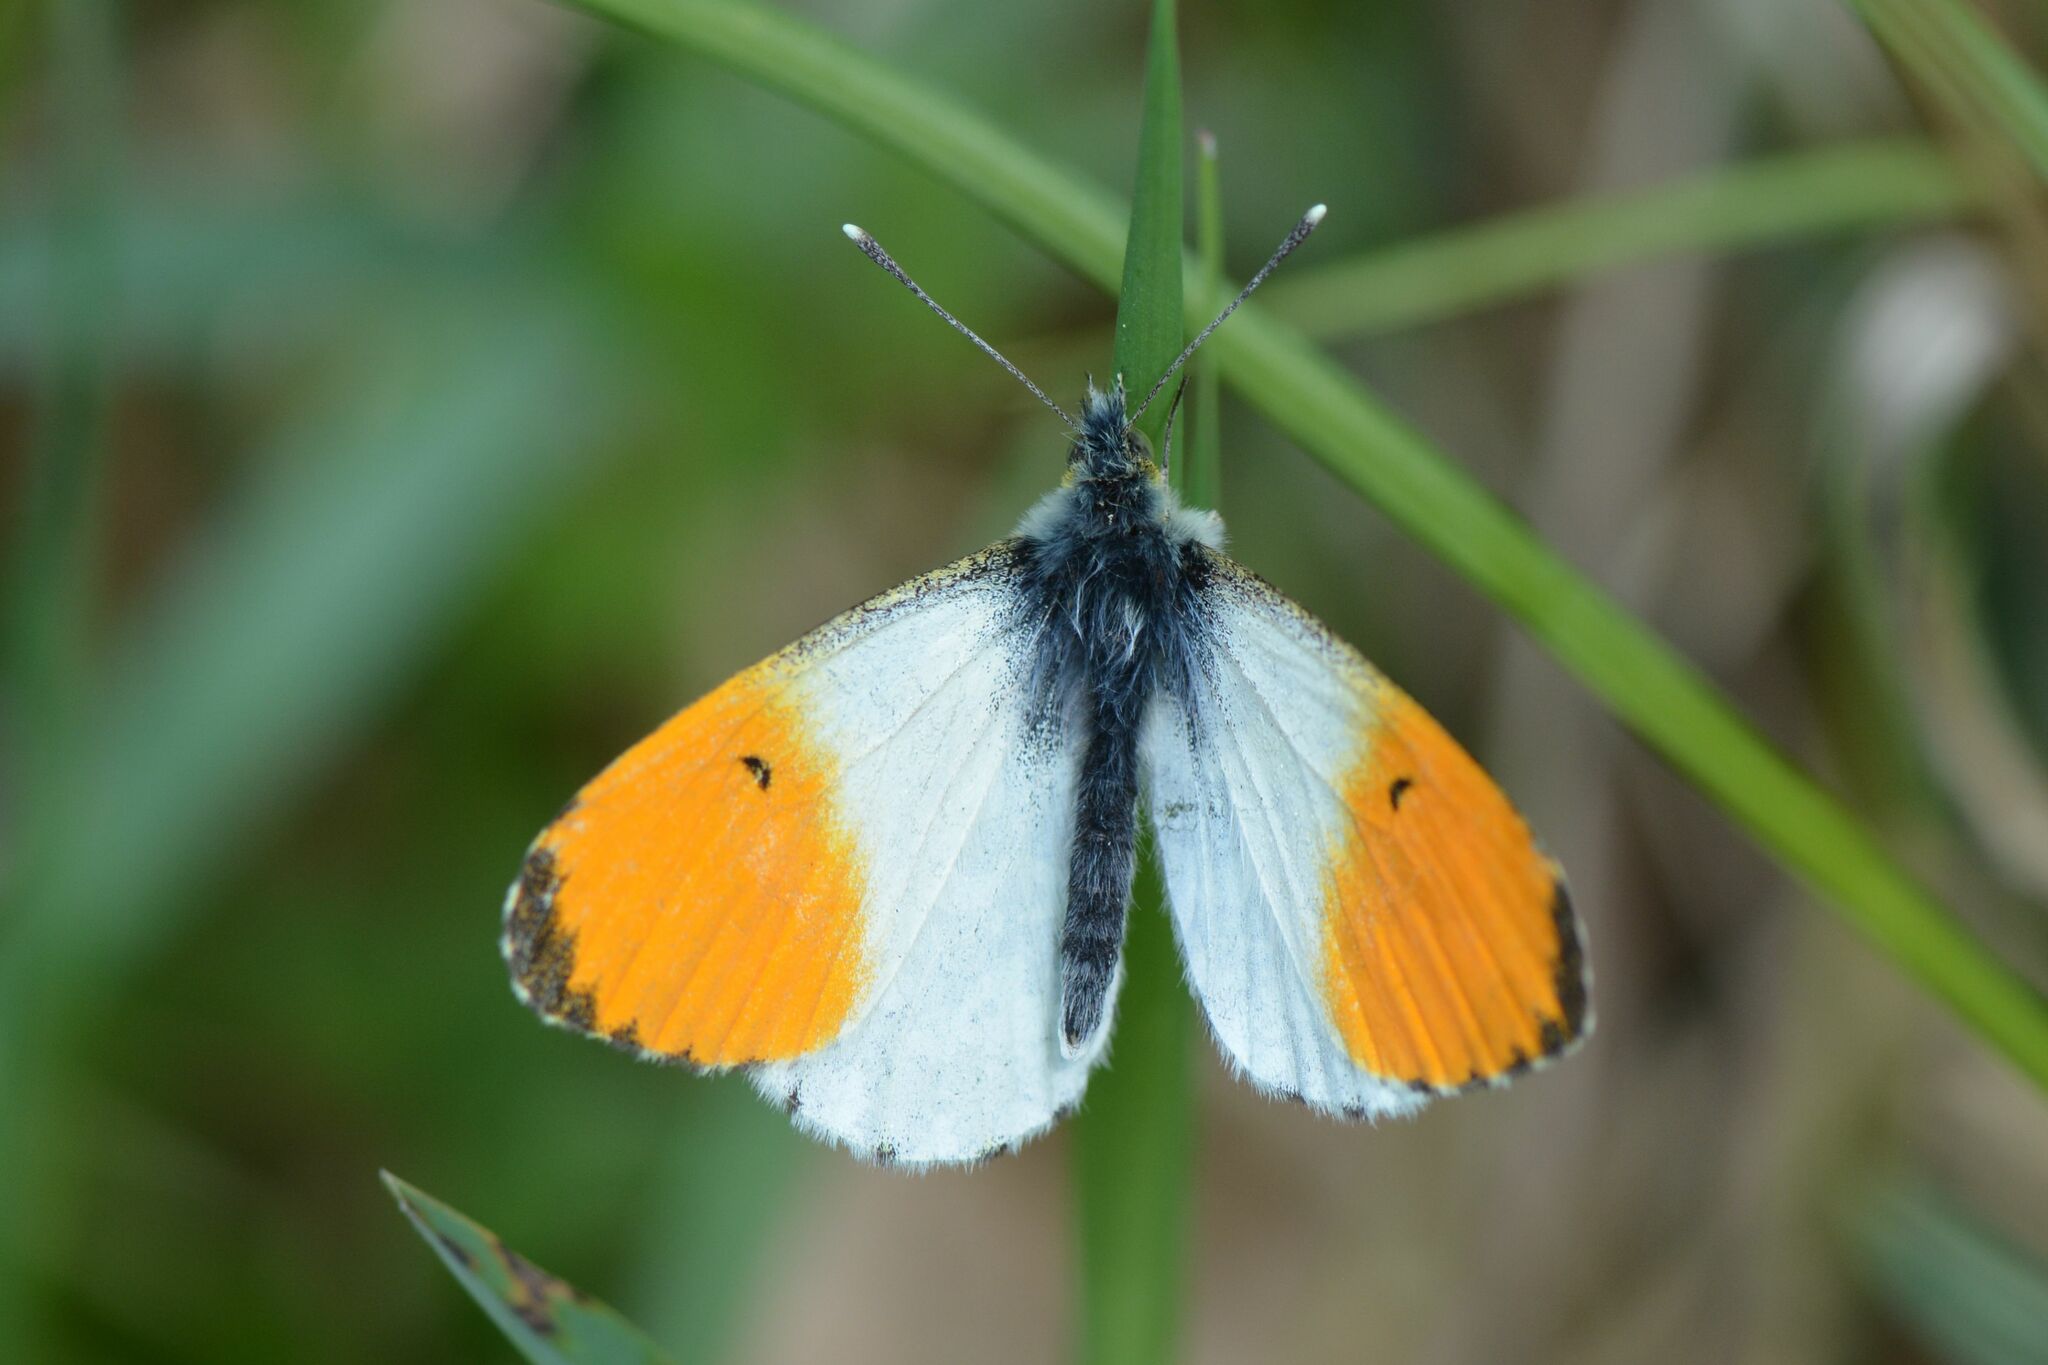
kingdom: Animalia
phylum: Arthropoda
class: Insecta
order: Lepidoptera
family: Pieridae
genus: Anthocharis
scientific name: Anthocharis cardamines
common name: Orange-tip
